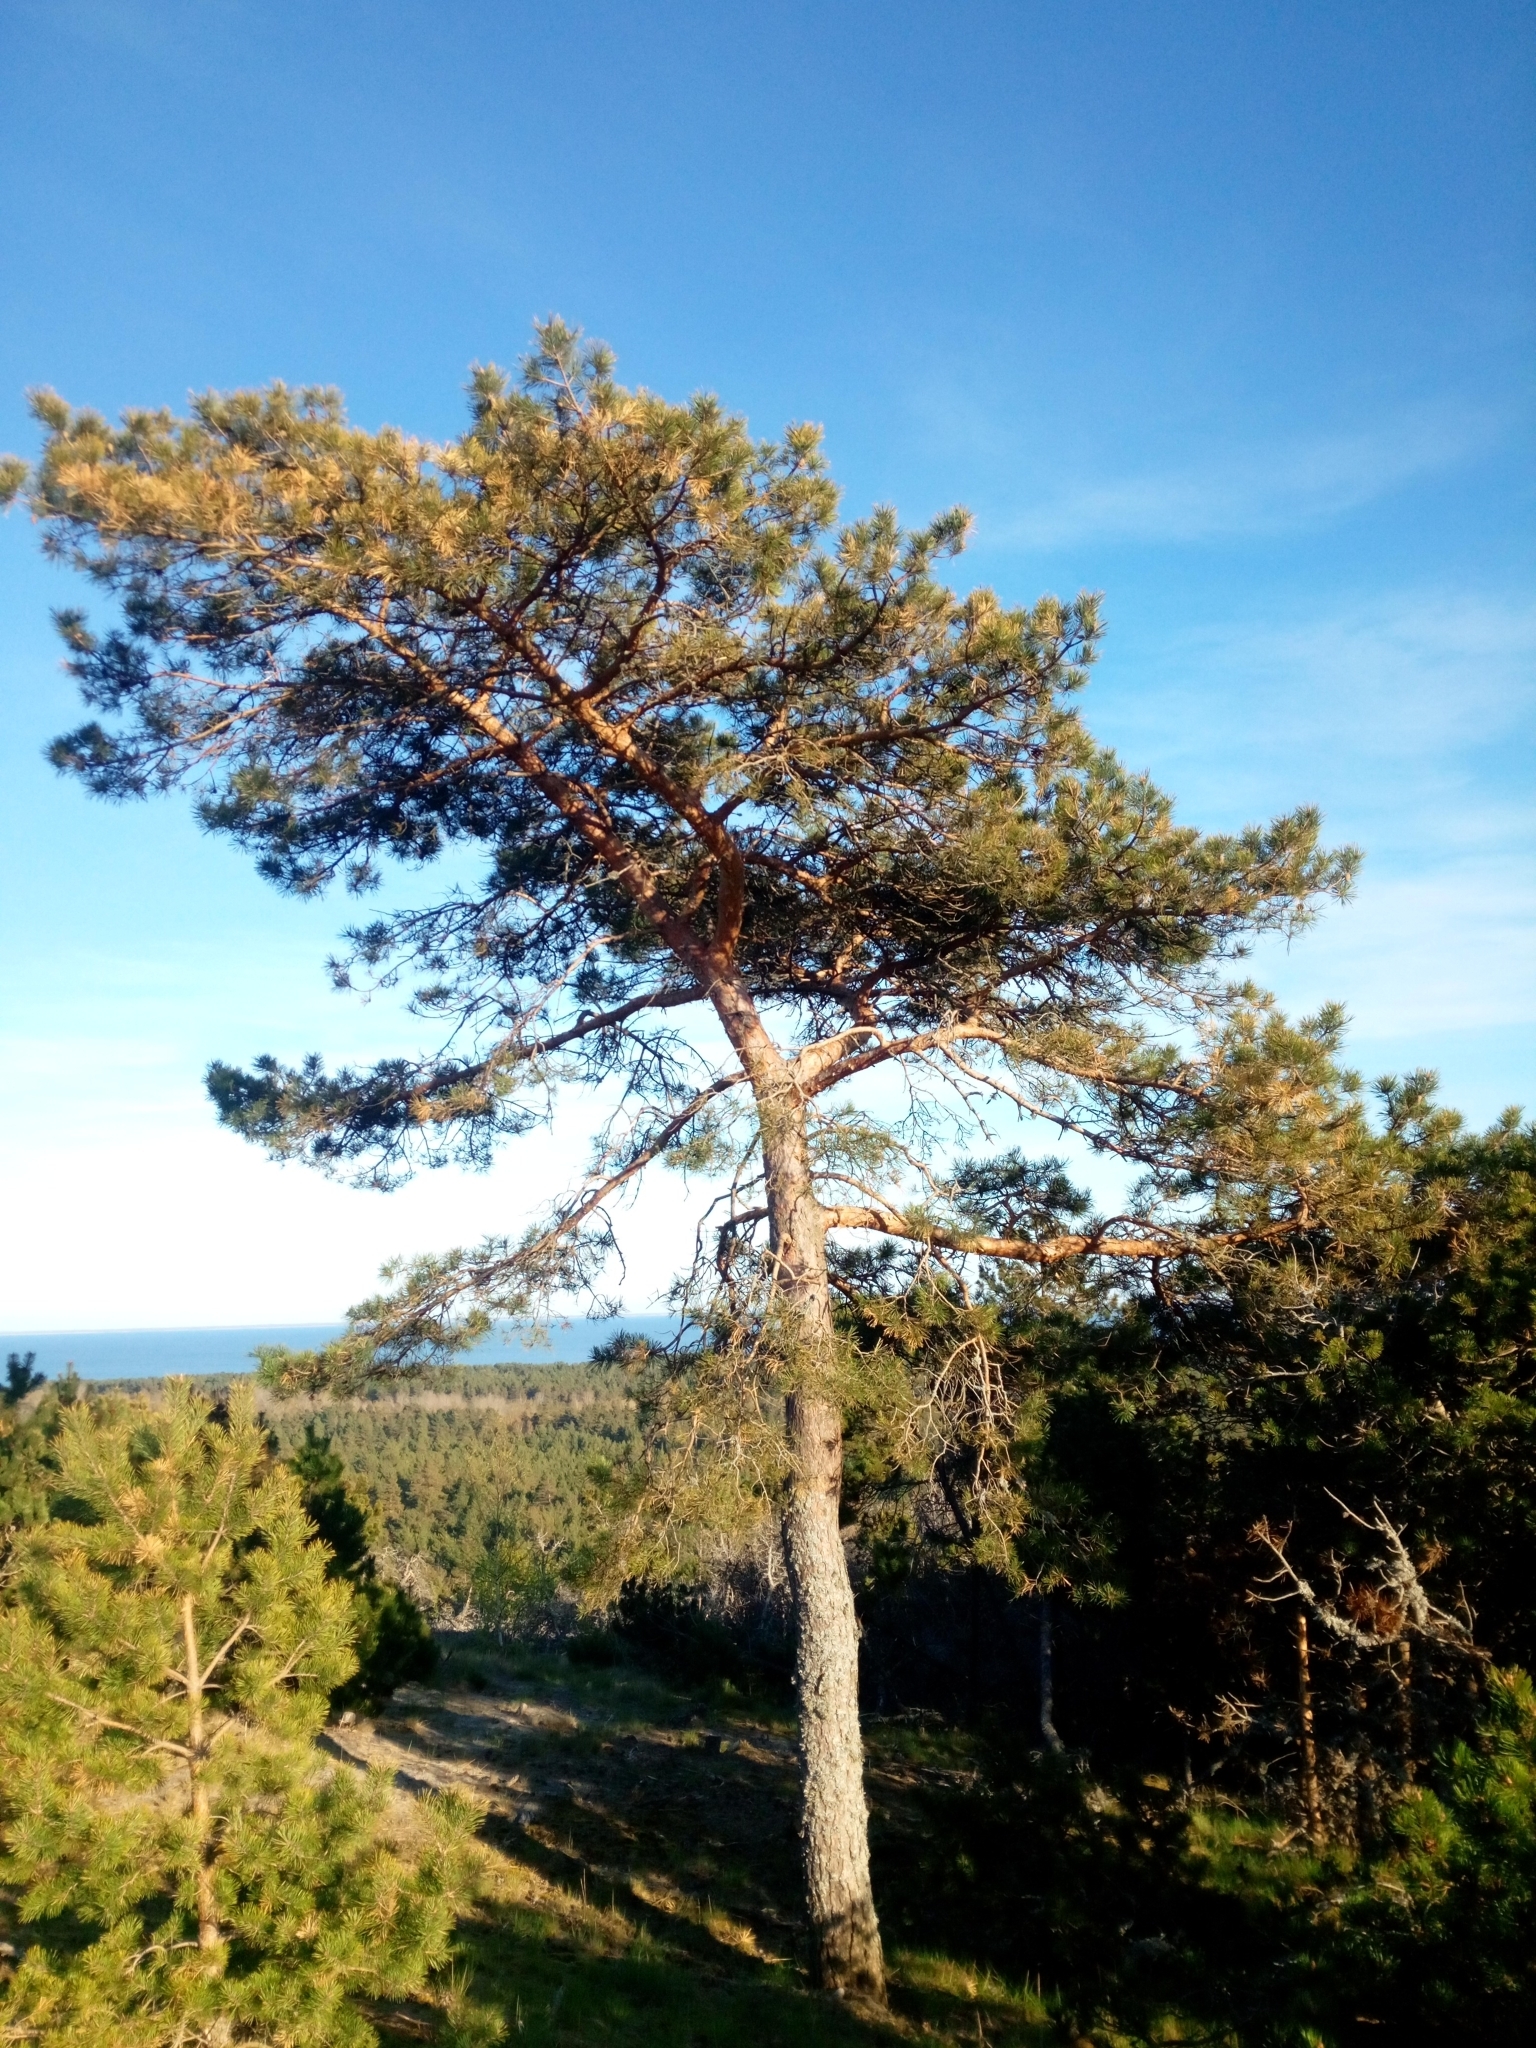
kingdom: Plantae
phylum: Tracheophyta
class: Pinopsida
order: Pinales
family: Pinaceae
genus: Pinus
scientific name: Pinus sylvestris
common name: Scots pine
